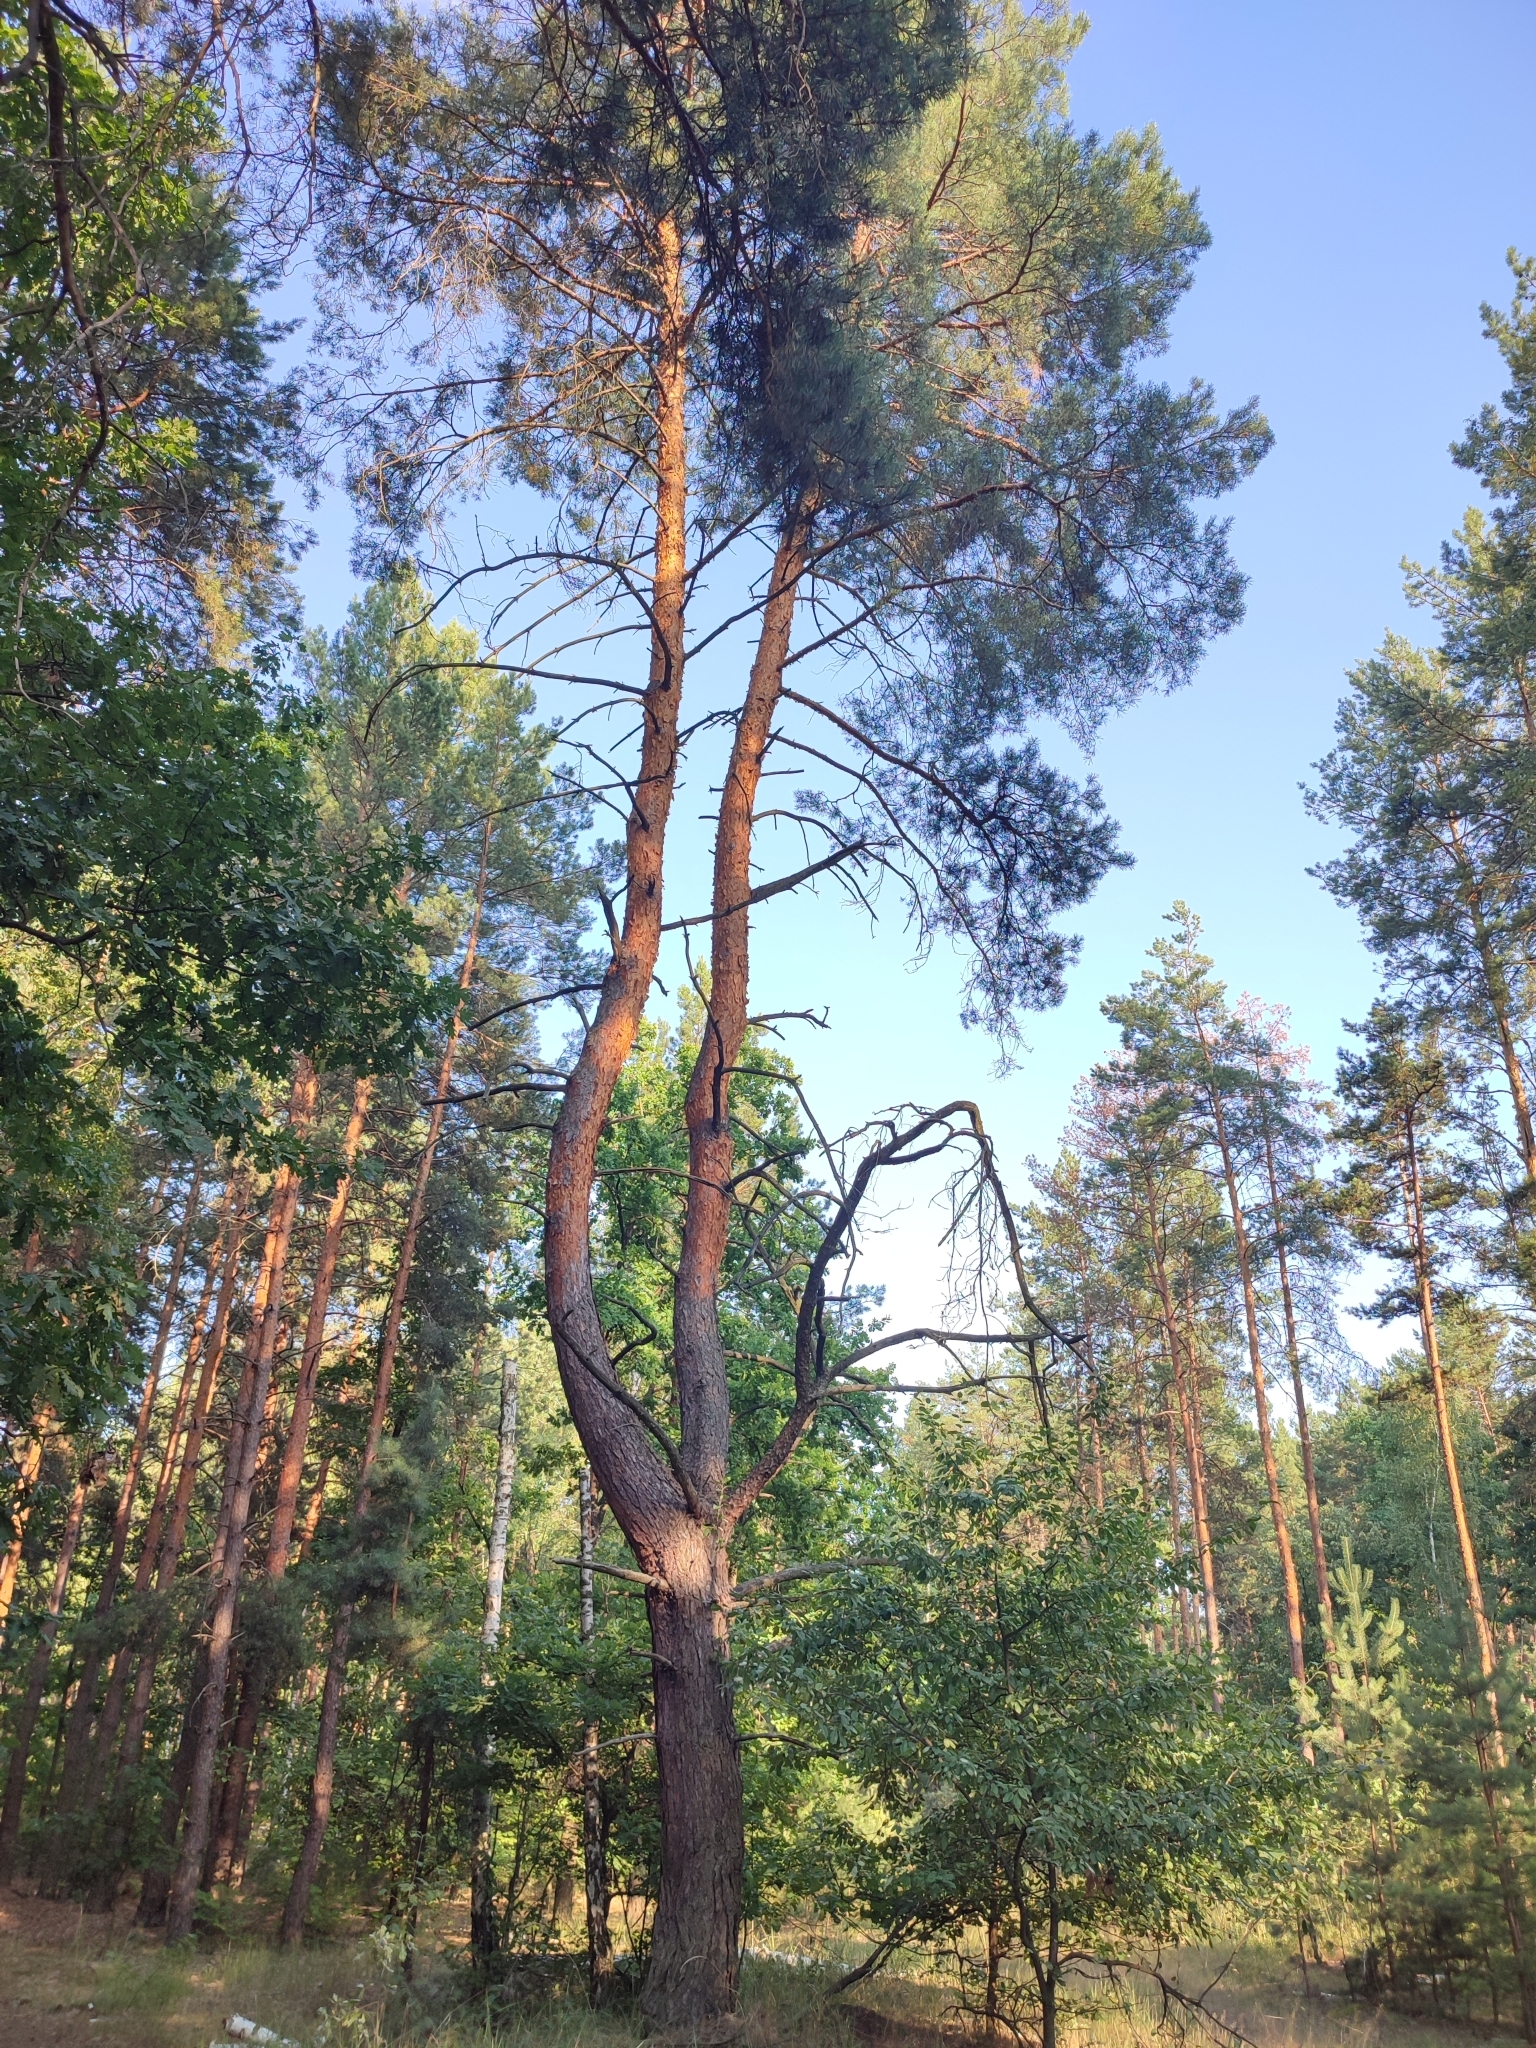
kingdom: Plantae
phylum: Tracheophyta
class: Pinopsida
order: Pinales
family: Pinaceae
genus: Pinus
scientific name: Pinus sylvestris
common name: Scots pine
